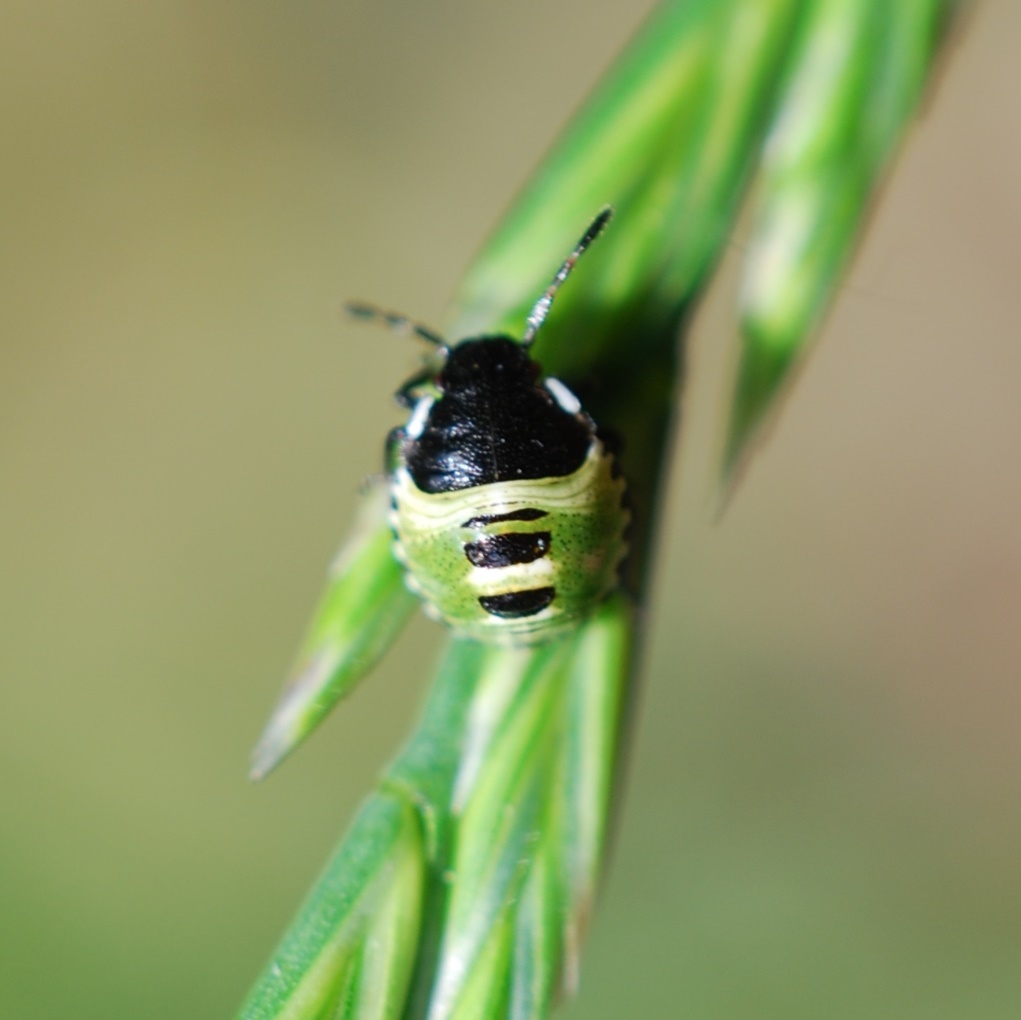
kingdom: Animalia
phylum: Arthropoda
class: Insecta
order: Hemiptera
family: Pentatomidae
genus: Palomena
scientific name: Palomena prasina
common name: Green shieldbug
